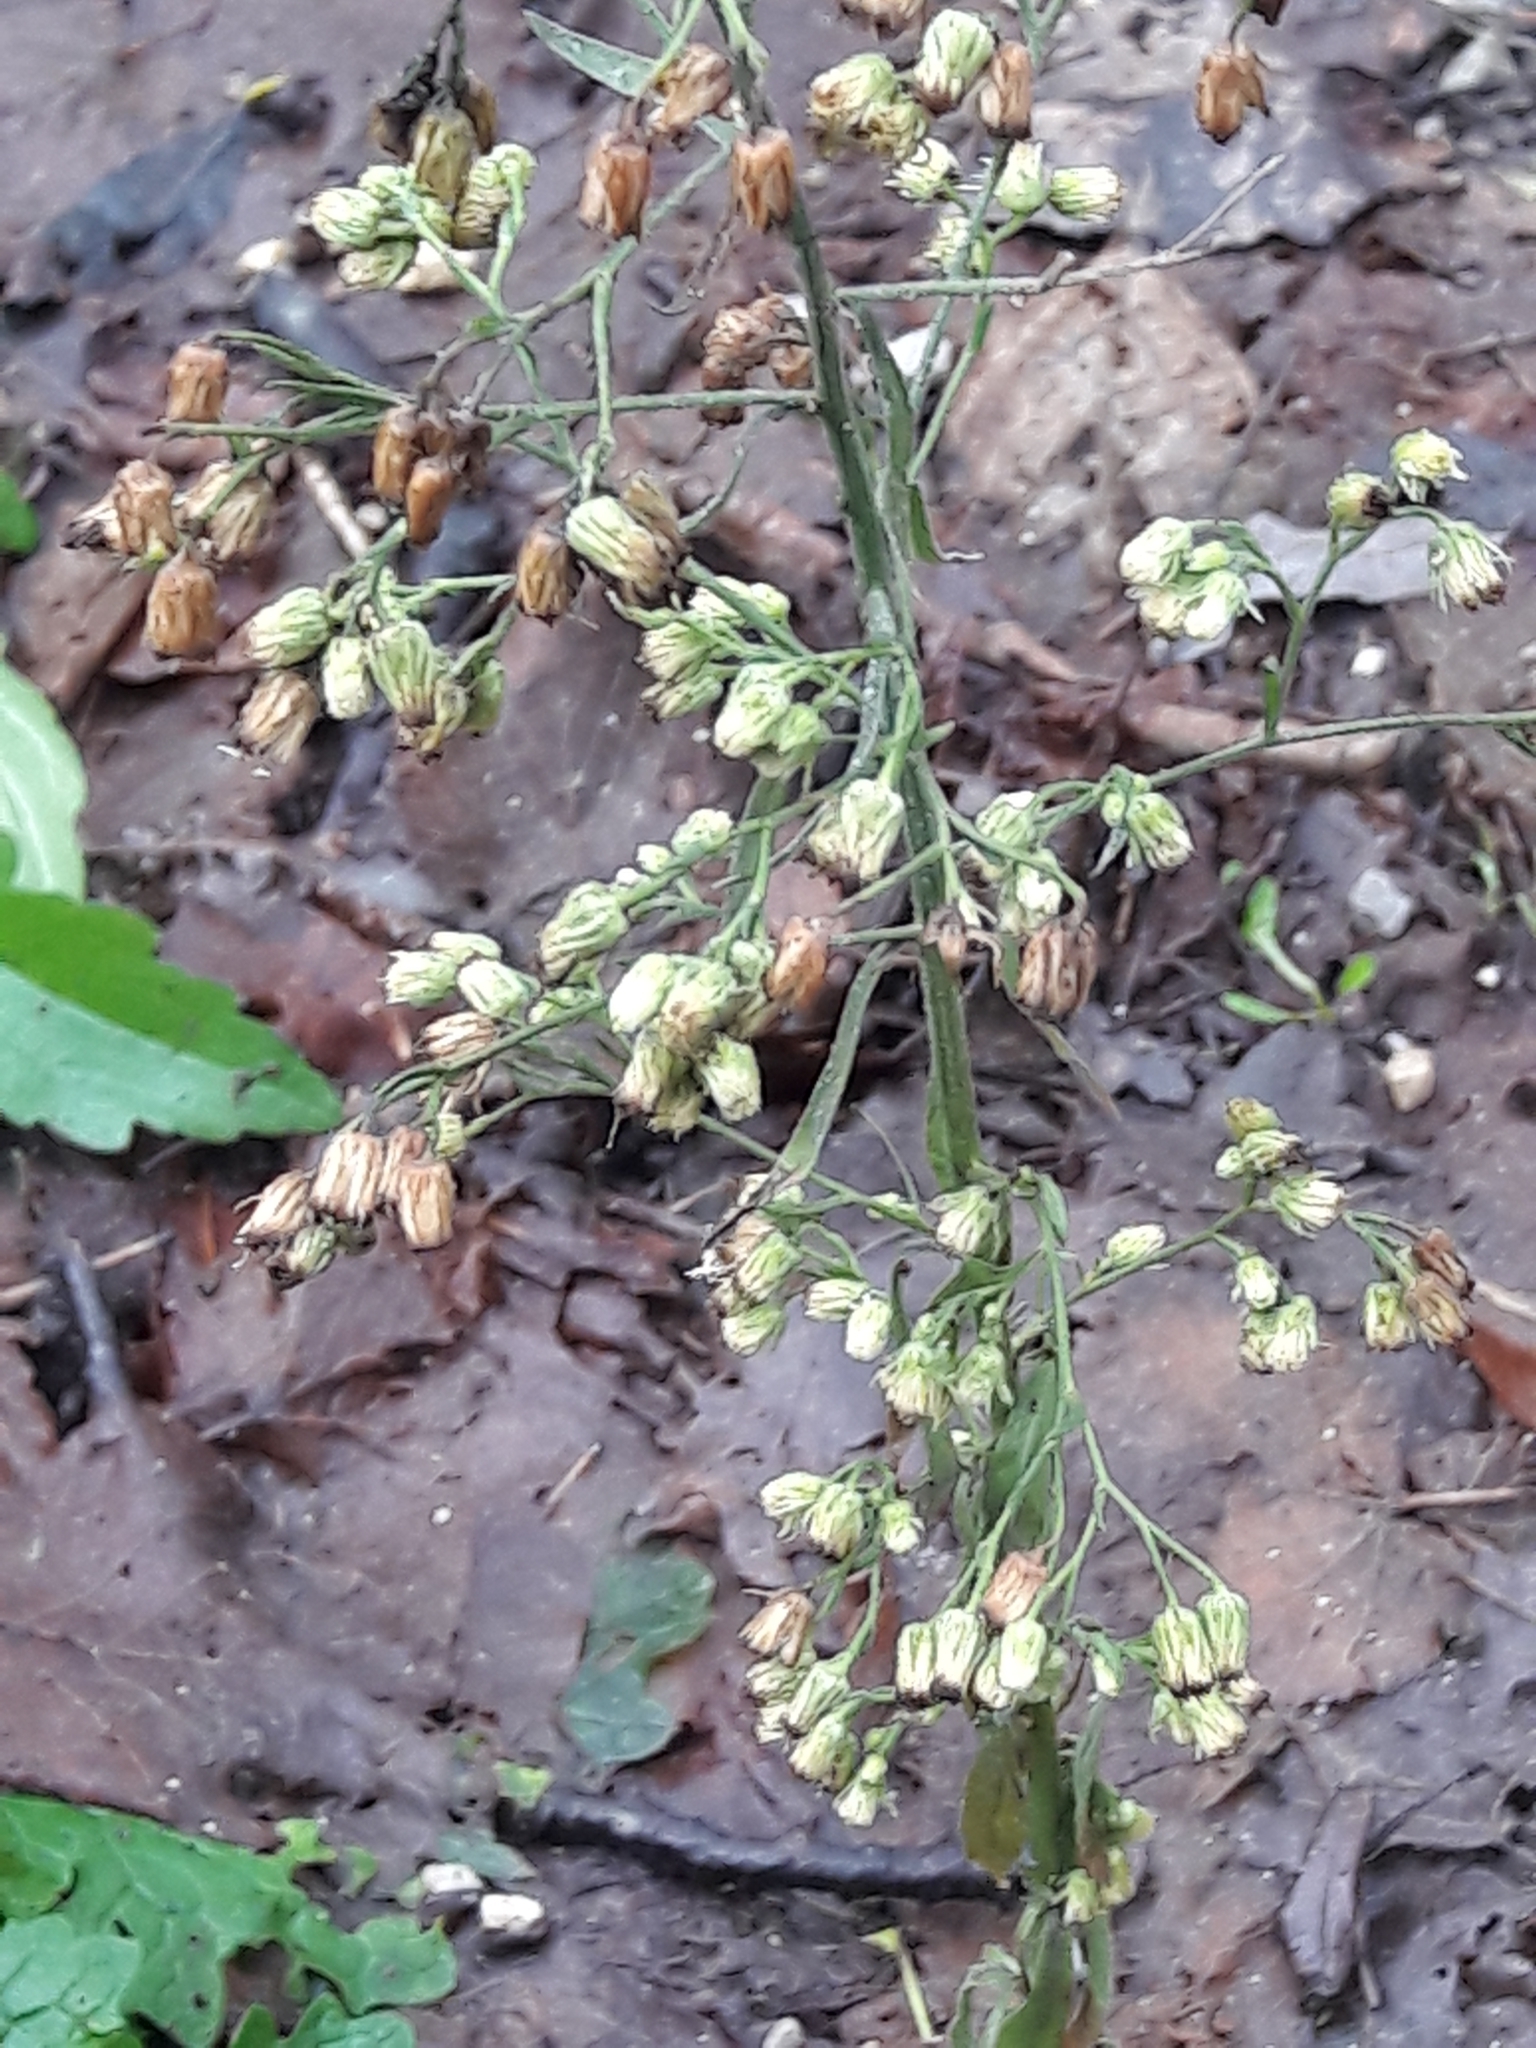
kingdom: Plantae
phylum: Tracheophyta
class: Magnoliopsida
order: Asterales
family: Asteraceae
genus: Erigeron
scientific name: Erigeron canadensis
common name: Canadian fleabane
